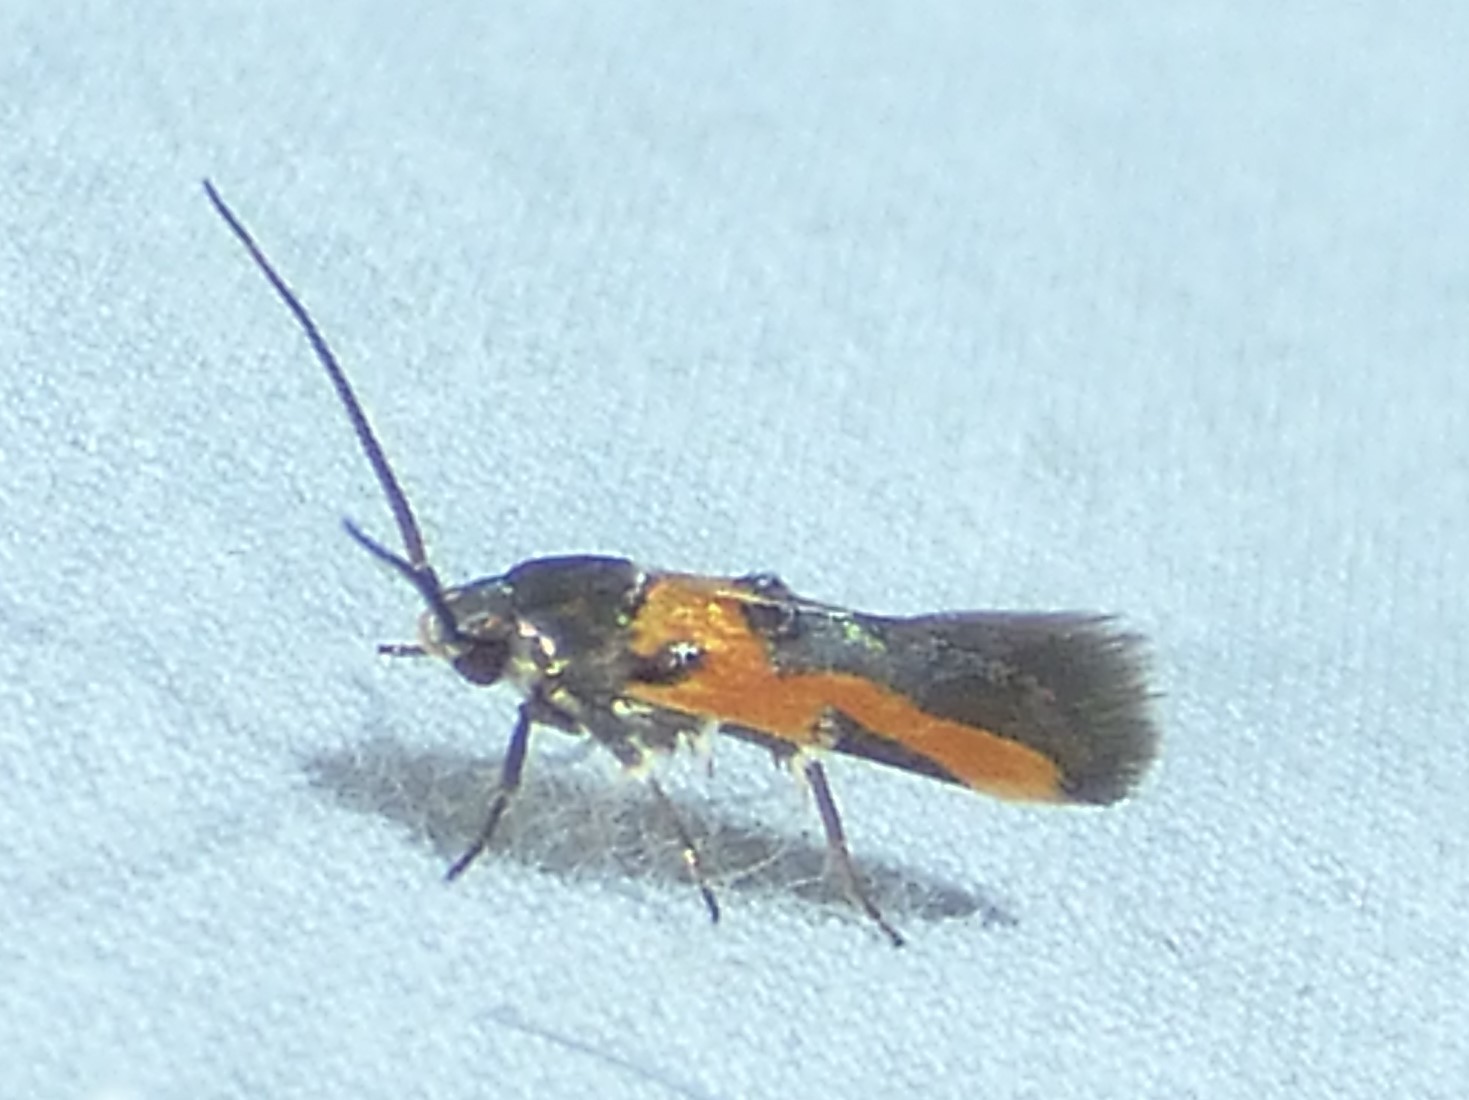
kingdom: Animalia
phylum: Arthropoda
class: Insecta
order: Lepidoptera
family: Cosmopterigidae
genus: Euclemensia
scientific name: Euclemensia bassettella
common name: Kermes scale moth
